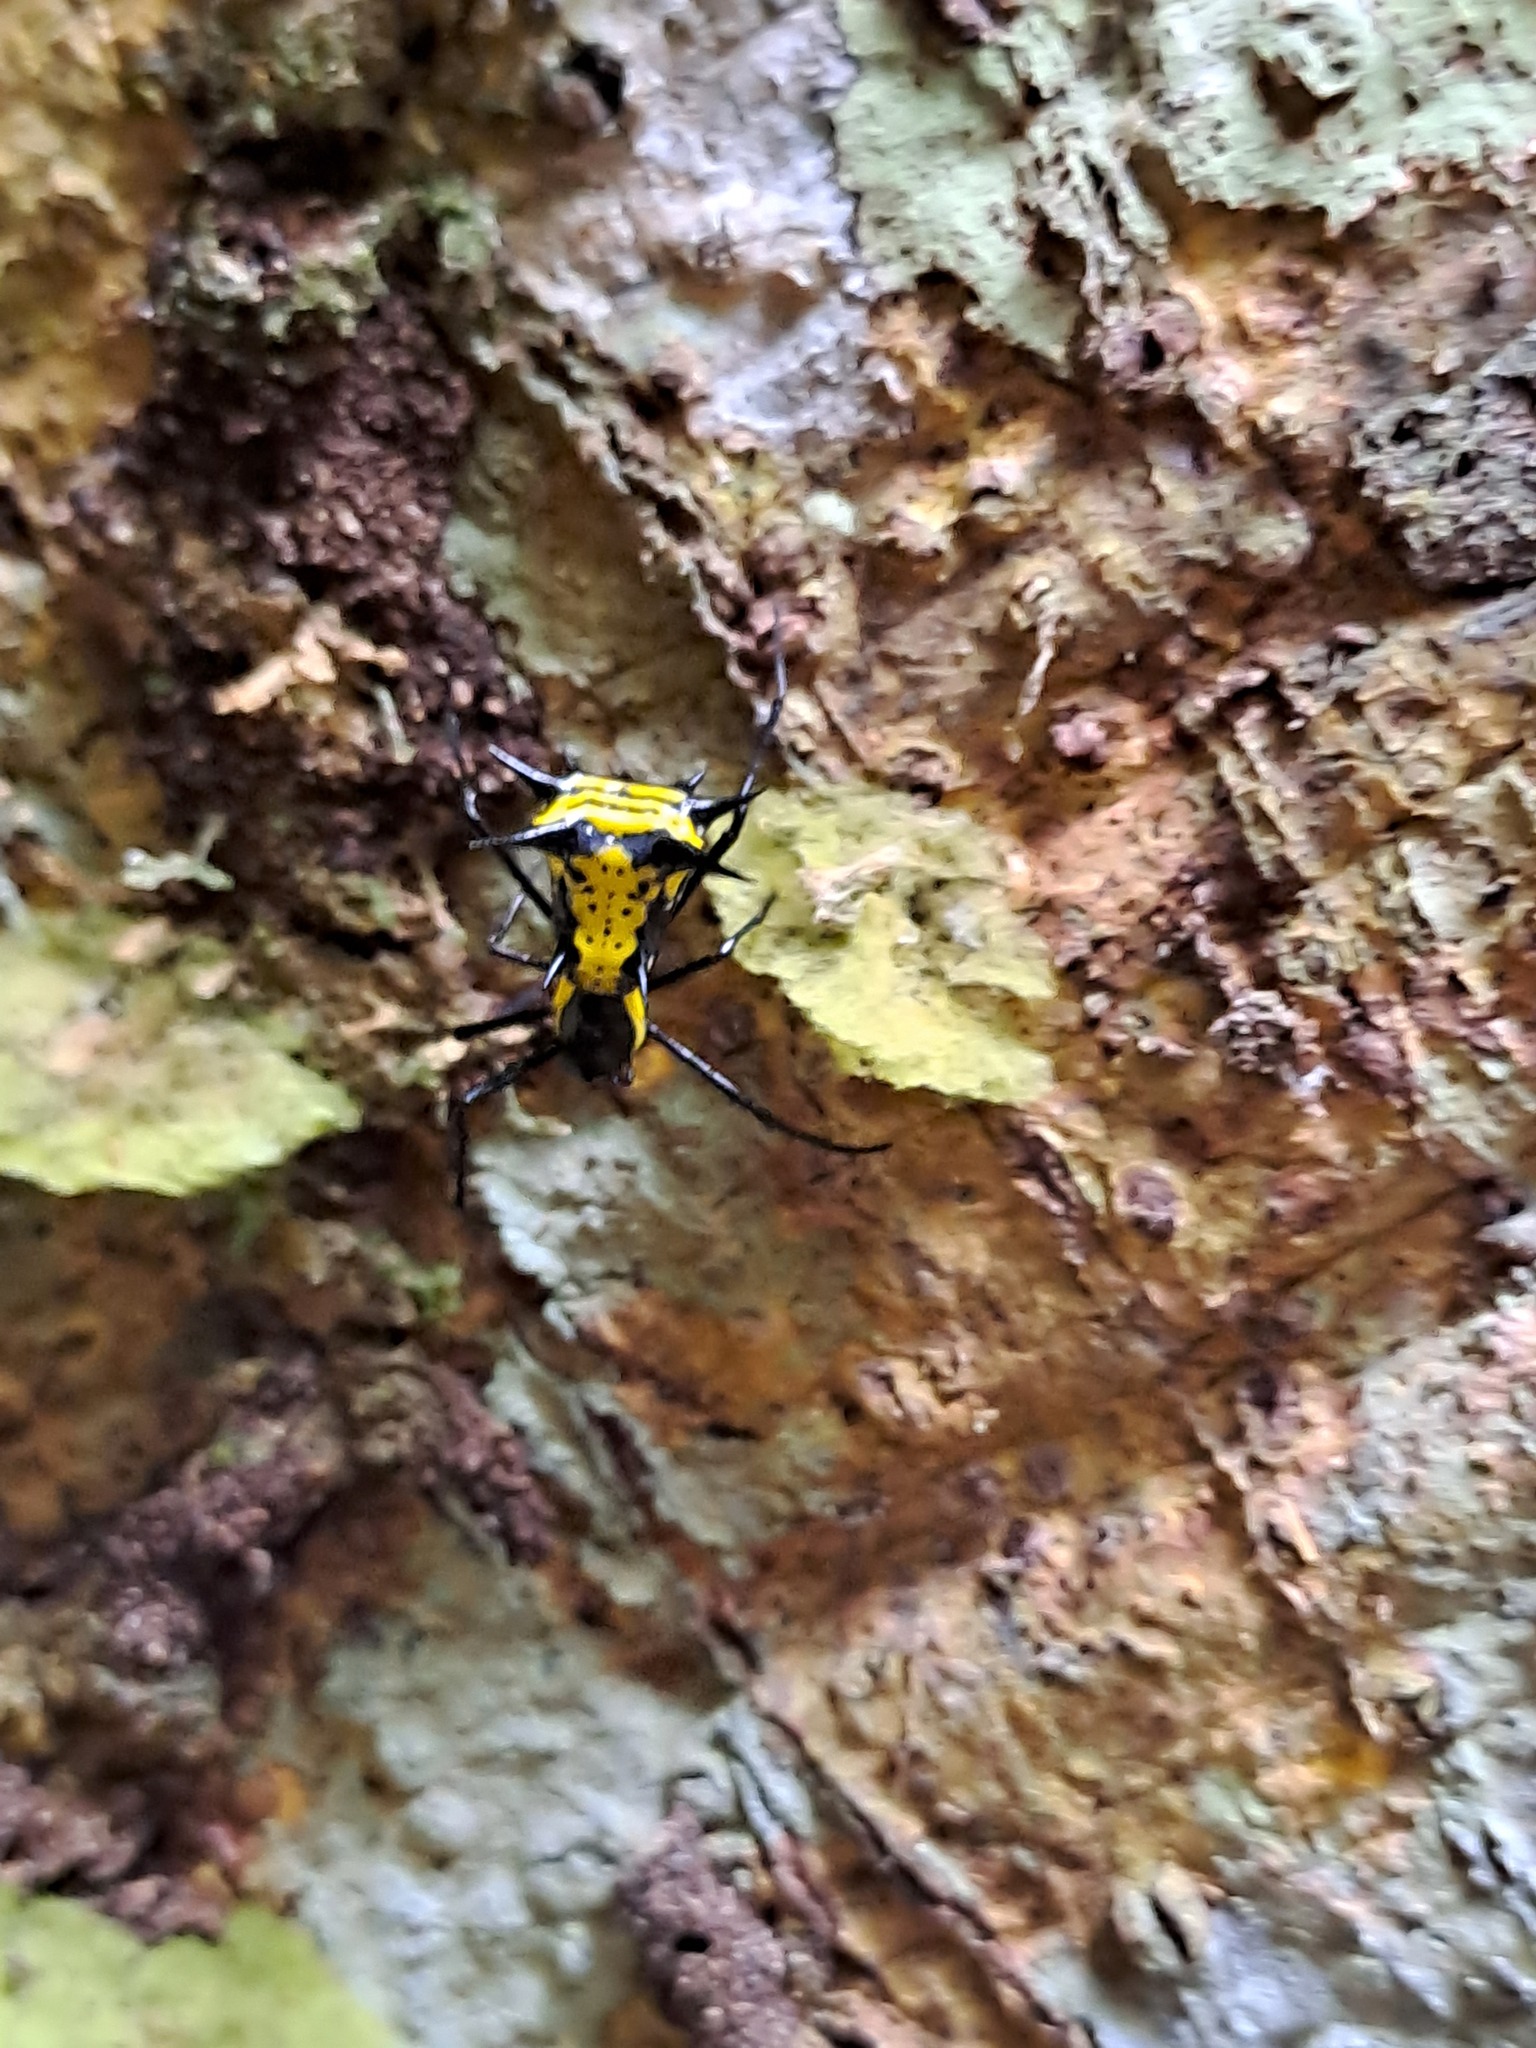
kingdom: Animalia
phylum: Arthropoda
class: Arachnida
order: Araneae
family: Araneidae
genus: Micrathena
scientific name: Micrathena vigorsi
